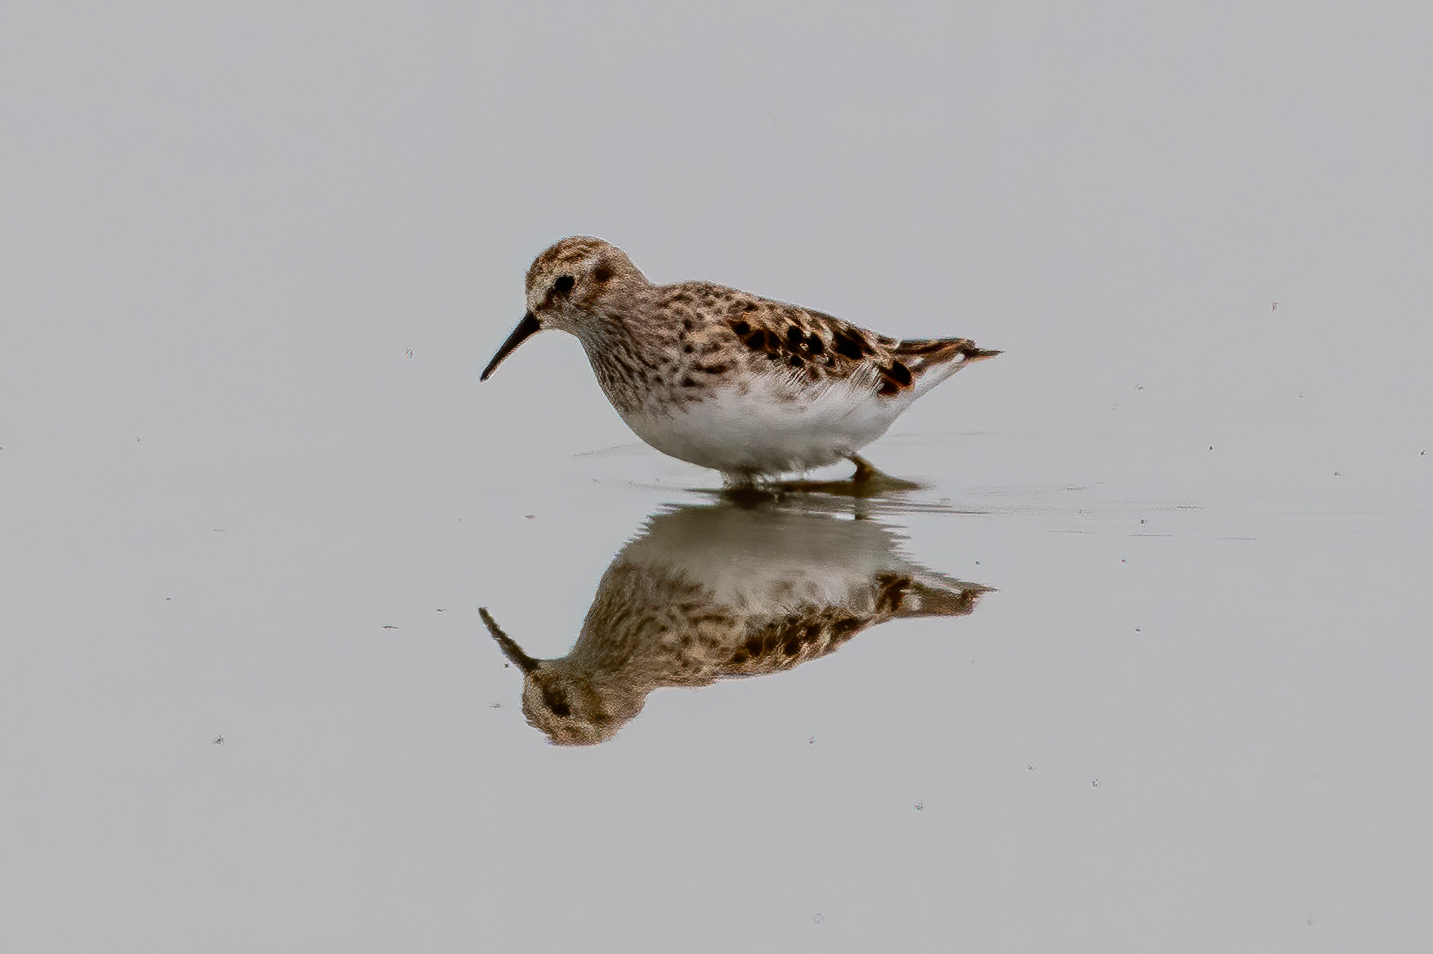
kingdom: Animalia
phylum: Chordata
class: Aves
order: Charadriiformes
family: Scolopacidae
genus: Calidris
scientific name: Calidris minutilla
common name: Least sandpiper
